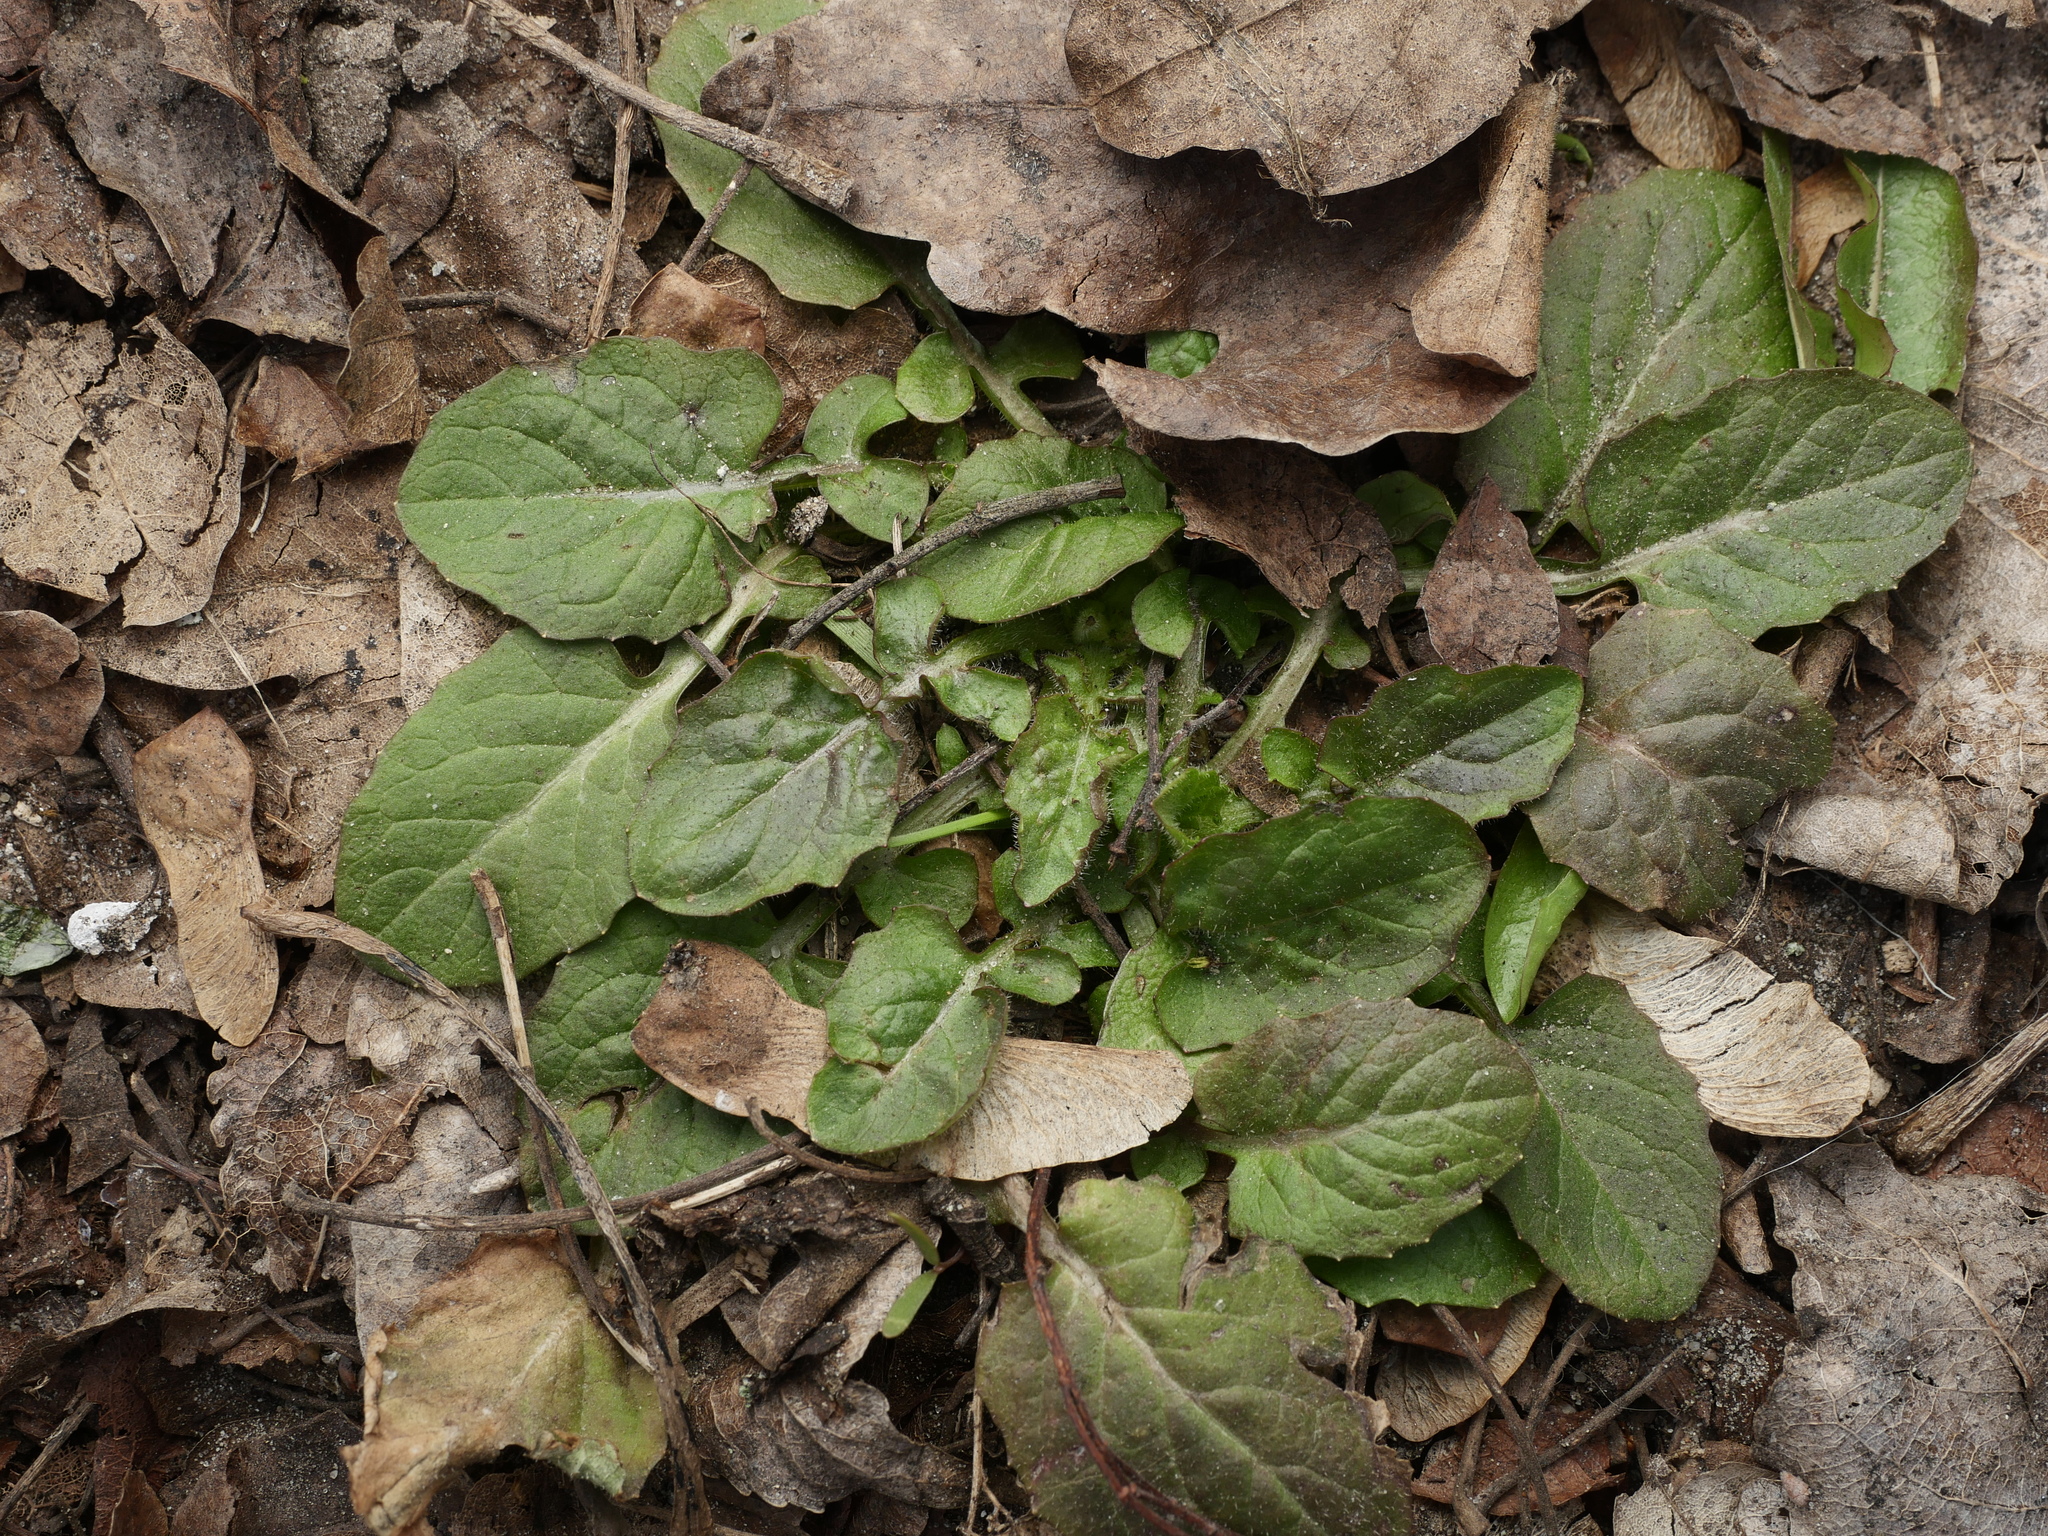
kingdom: Plantae
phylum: Tracheophyta
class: Magnoliopsida
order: Asterales
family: Asteraceae
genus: Lapsana
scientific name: Lapsana communis
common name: Nipplewort
